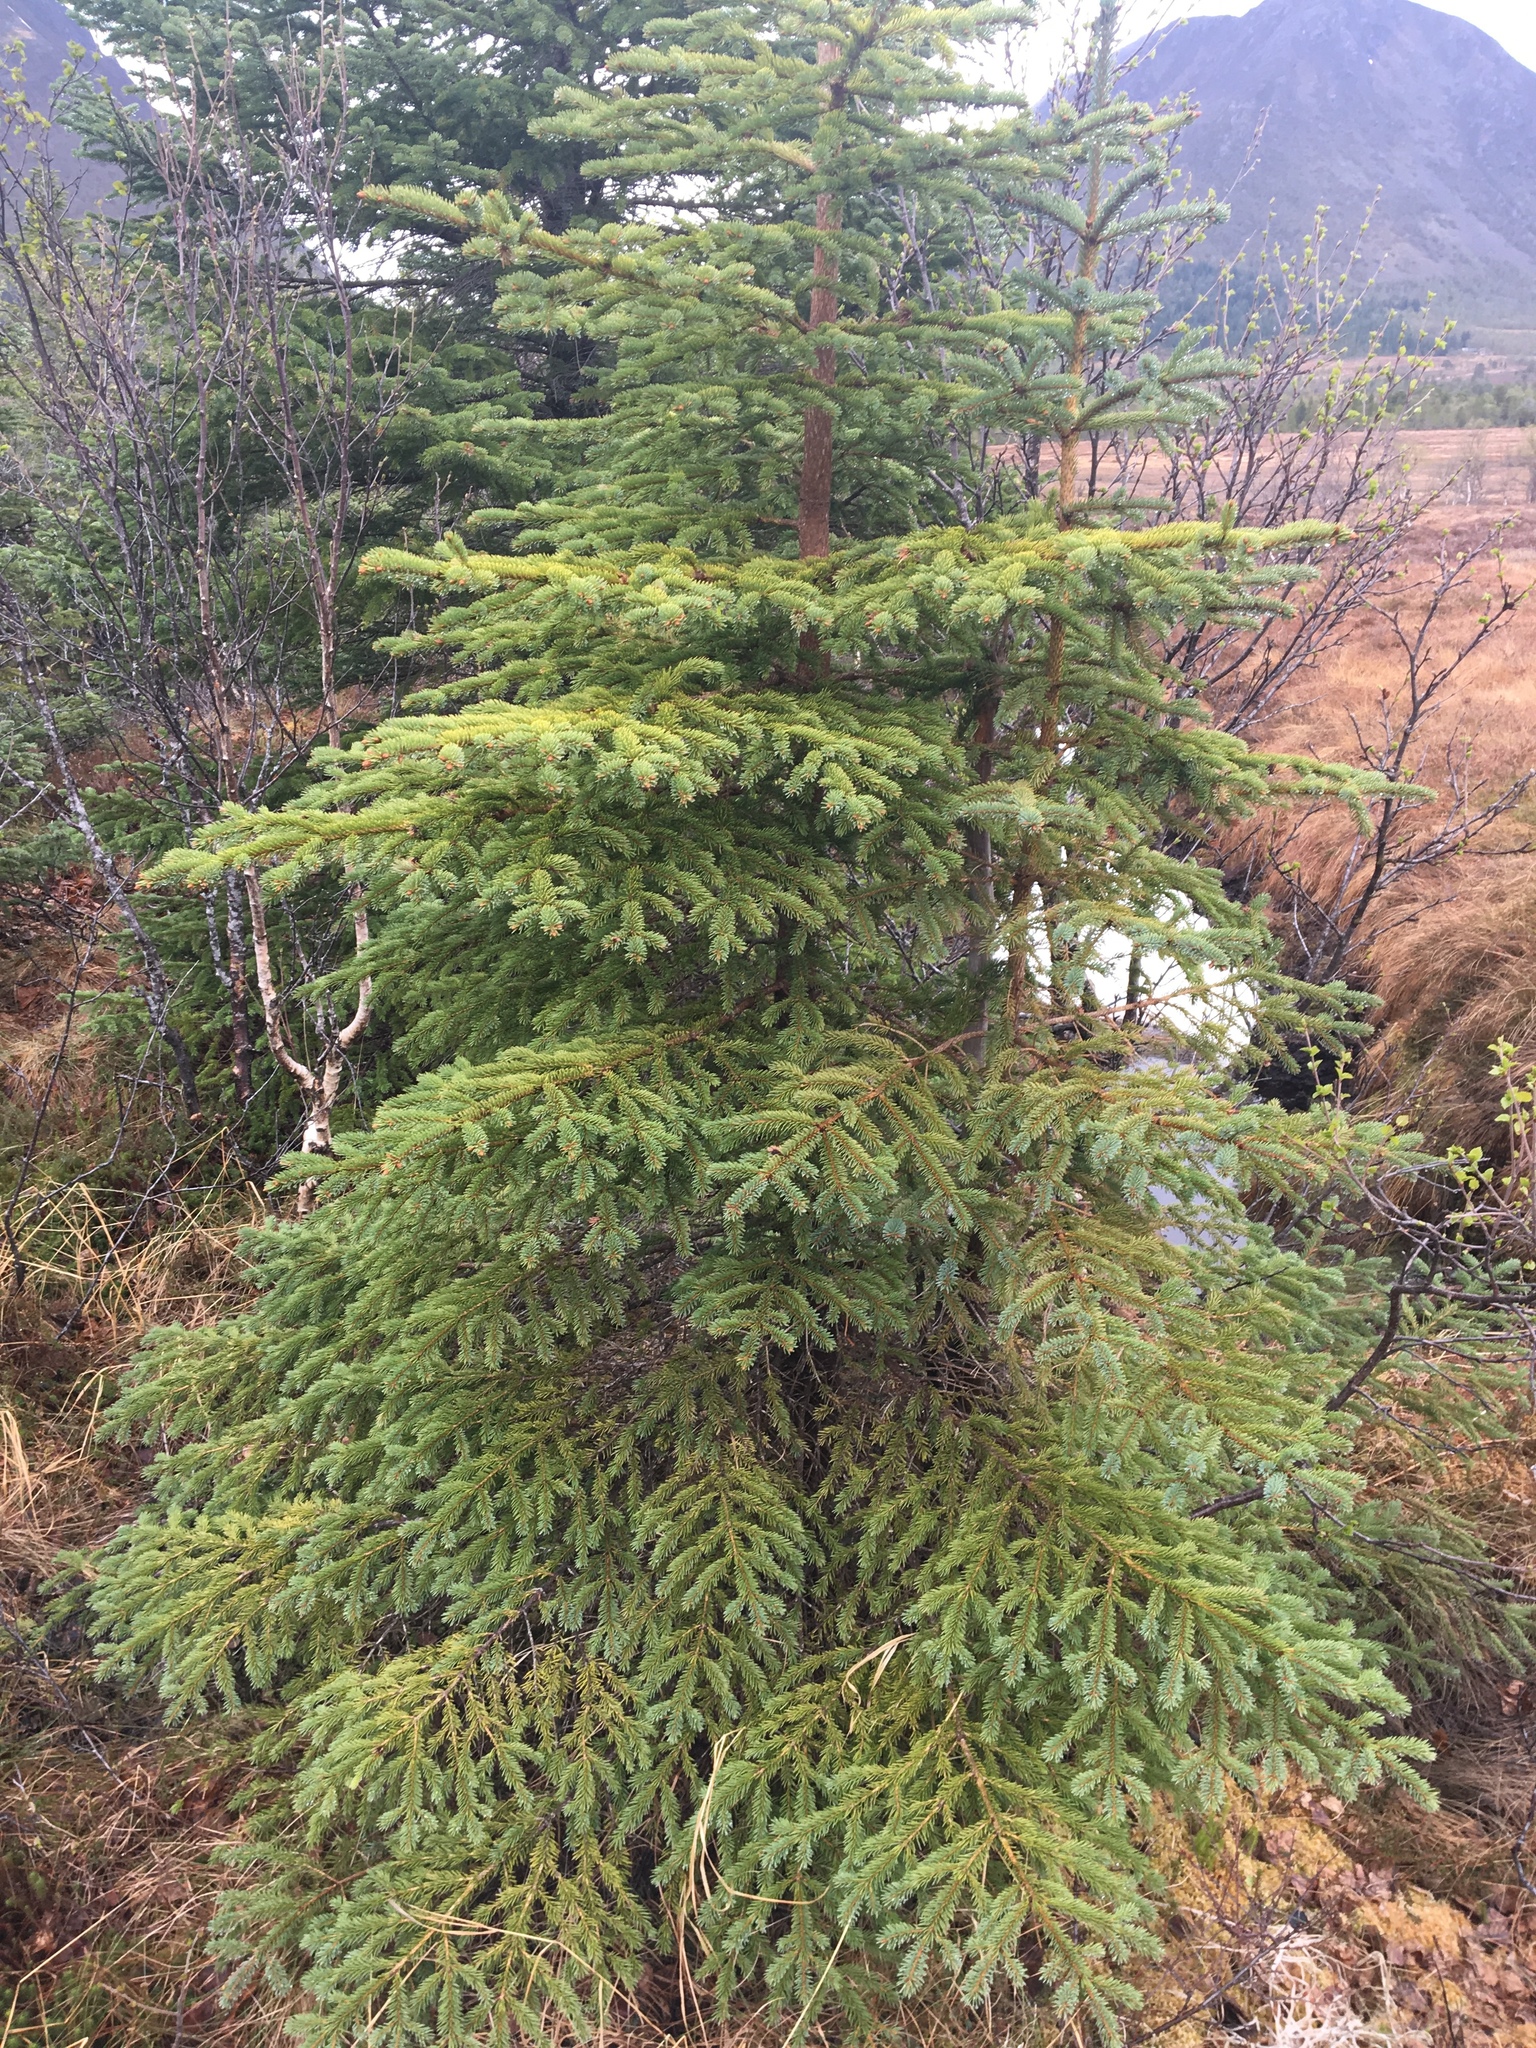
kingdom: Plantae
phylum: Tracheophyta
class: Pinopsida
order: Pinales
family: Pinaceae
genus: Picea
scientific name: Picea abies
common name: Norway spruce
